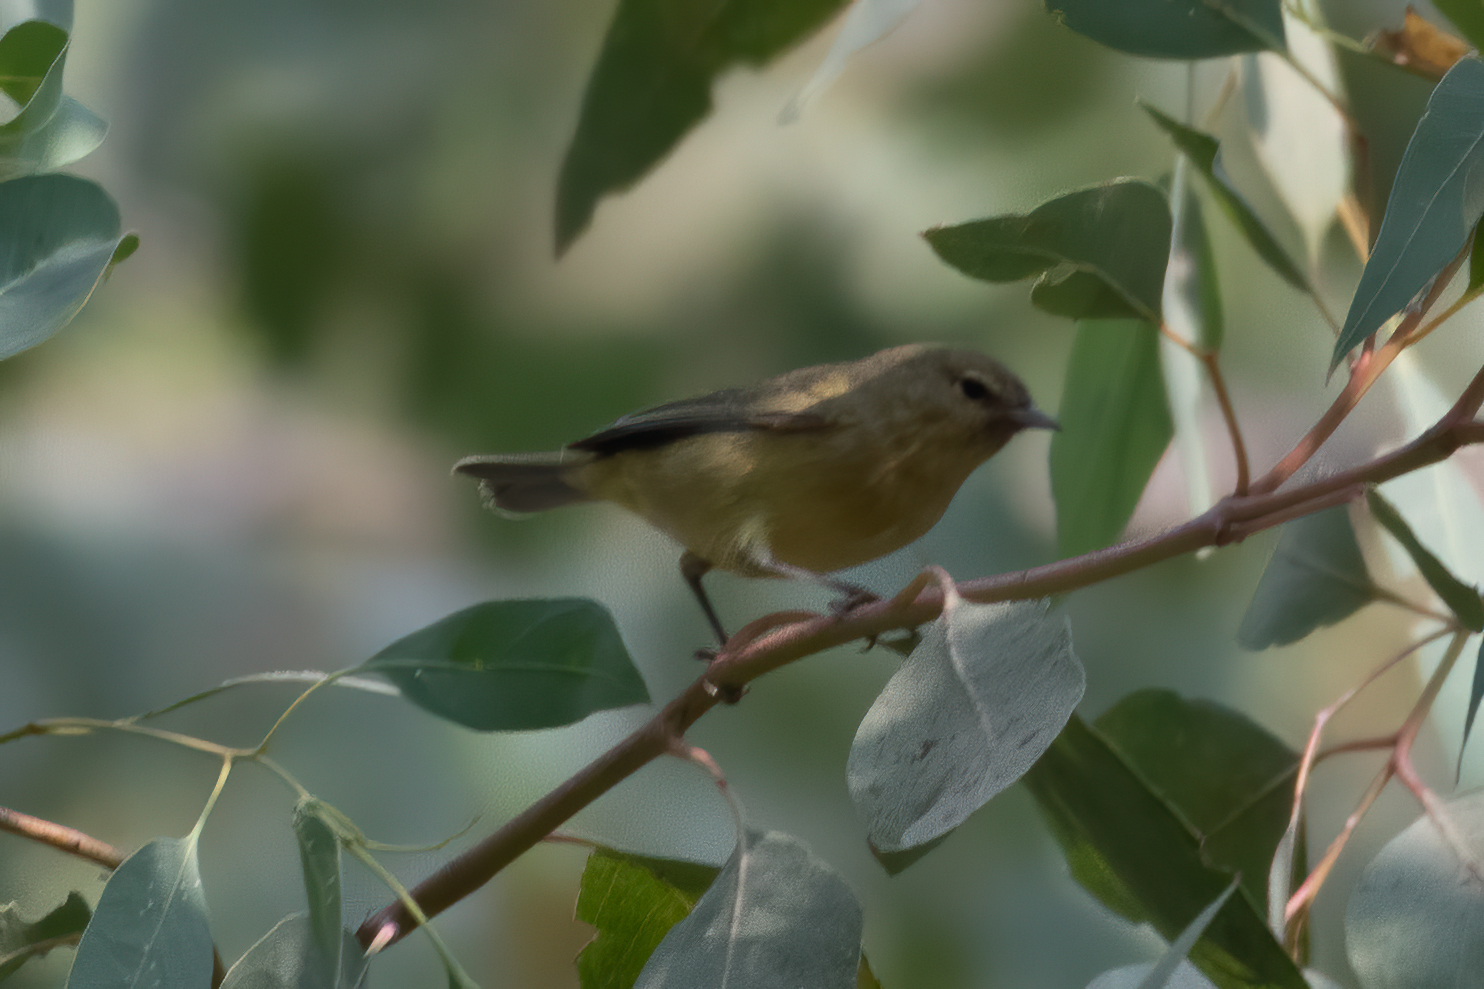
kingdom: Animalia
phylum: Chordata
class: Aves
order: Passeriformes
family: Parulidae
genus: Leiothlypis
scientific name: Leiothlypis celata
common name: Orange-crowned warbler
